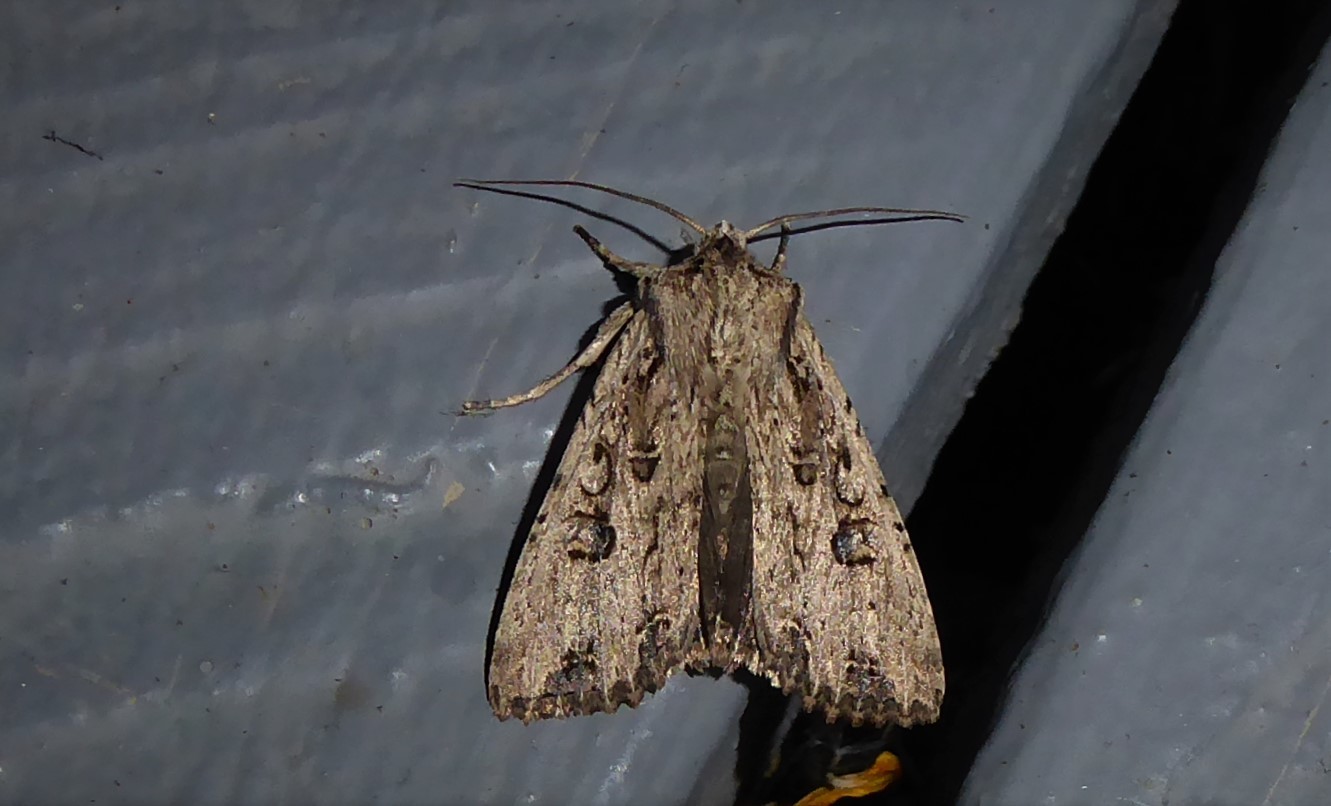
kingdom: Animalia
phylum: Arthropoda
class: Insecta
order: Lepidoptera
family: Noctuidae
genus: Ichneutica
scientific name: Ichneutica lignana
